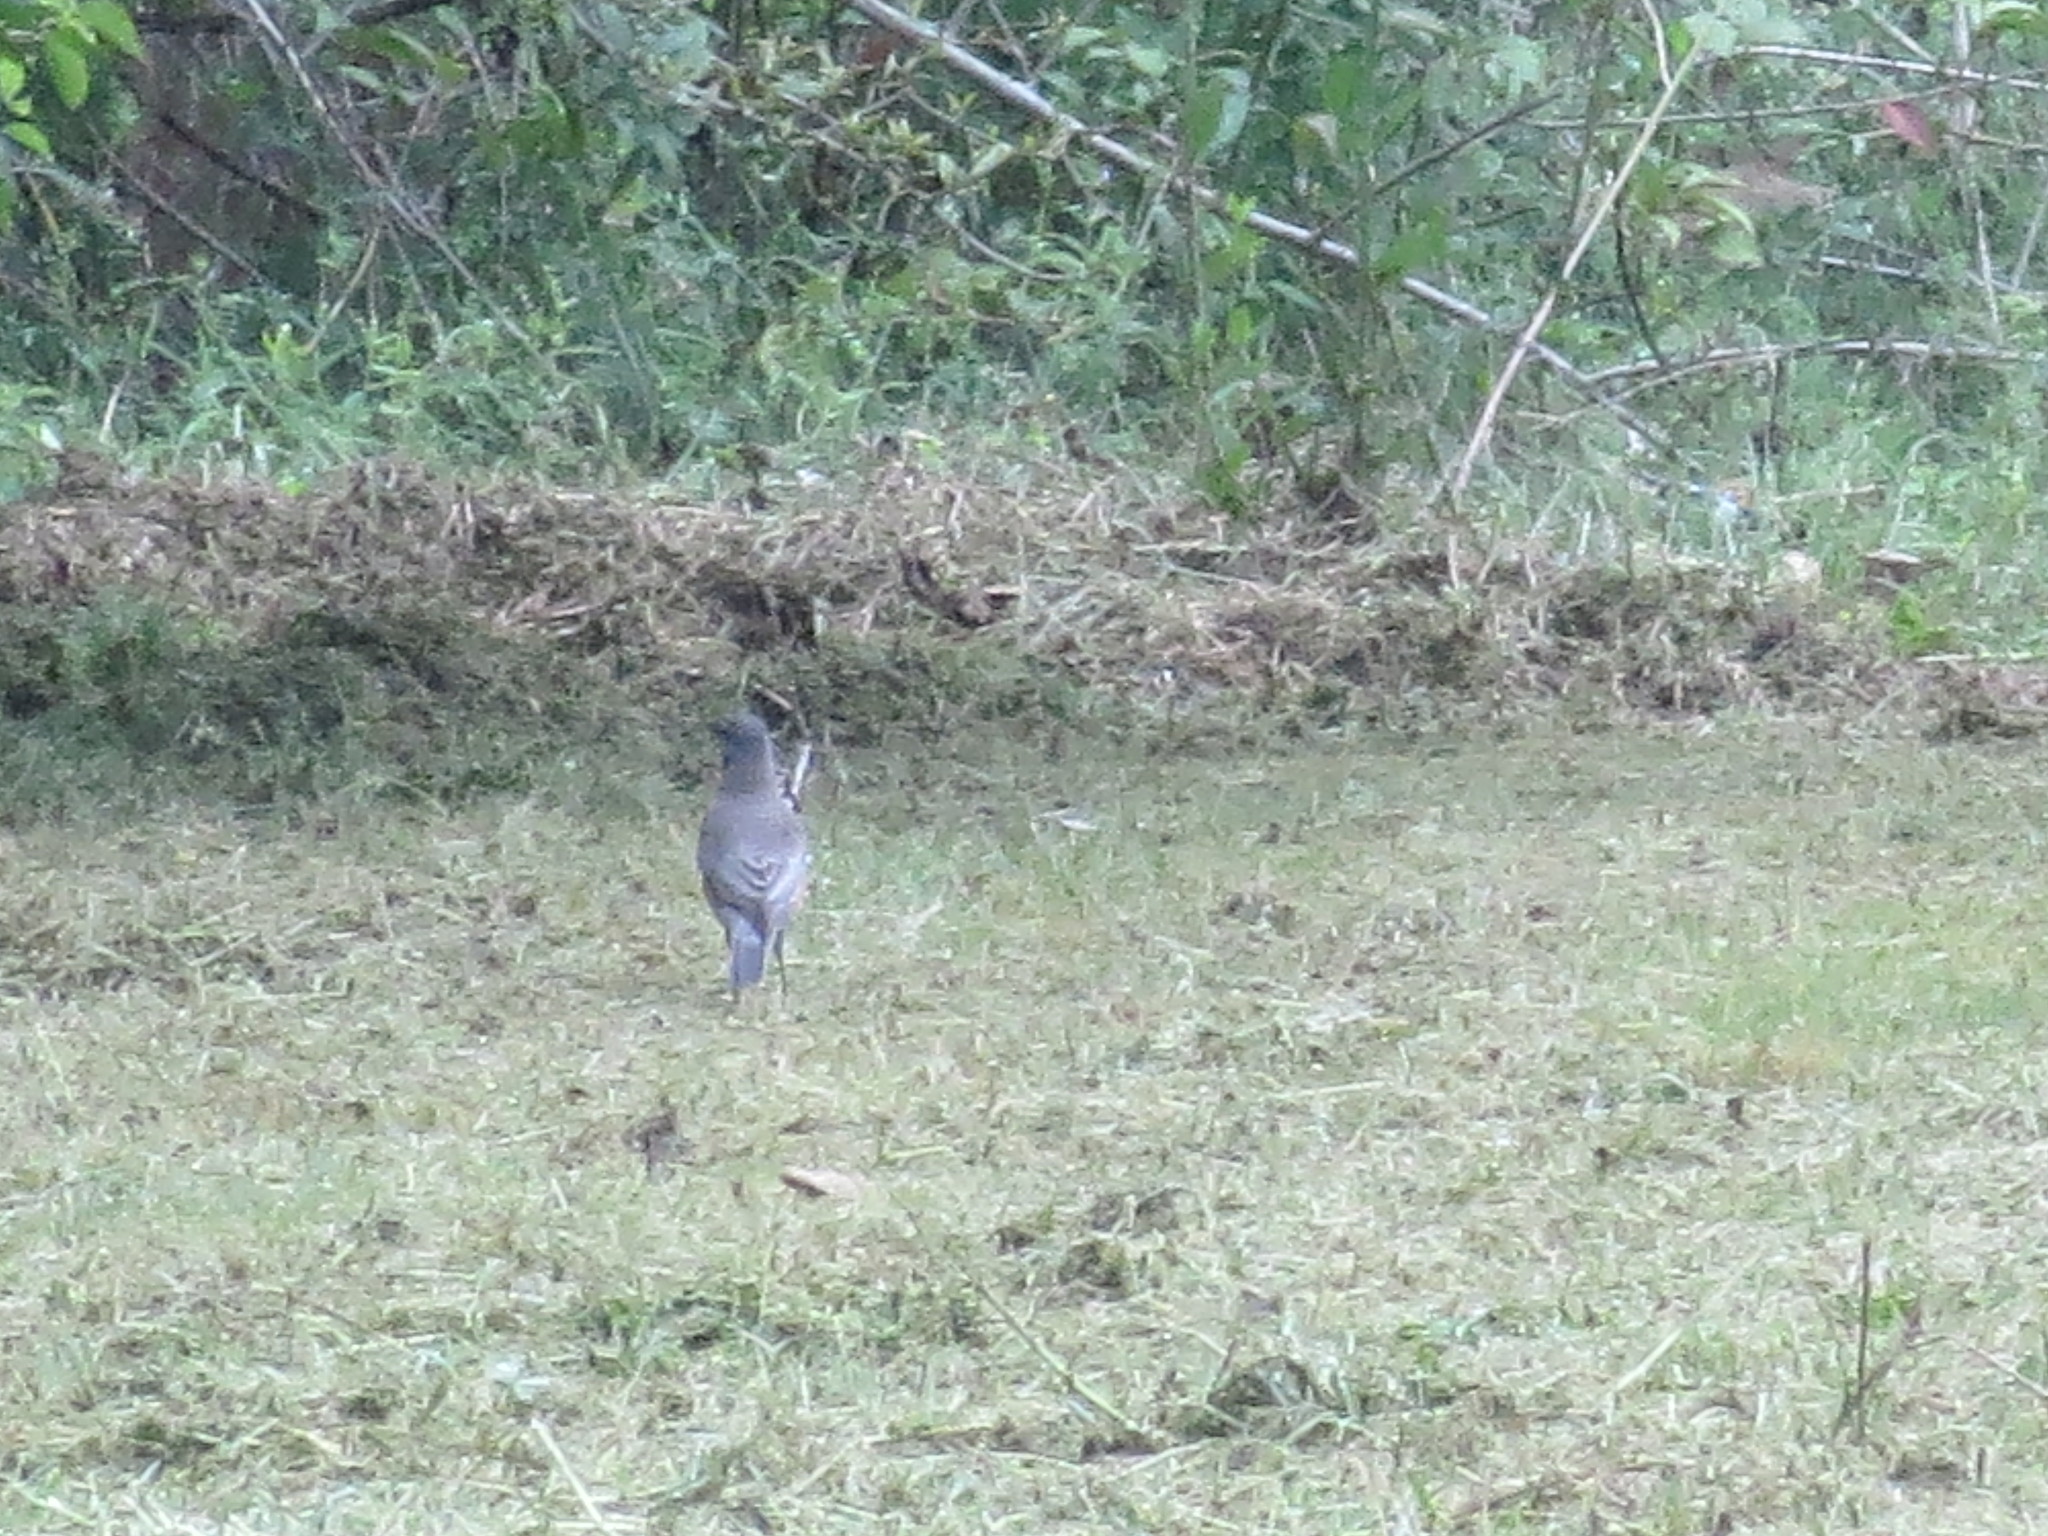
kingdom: Animalia
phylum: Chordata
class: Aves
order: Passeriformes
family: Turdidae
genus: Turdus
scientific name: Turdus migratorius
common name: American robin
